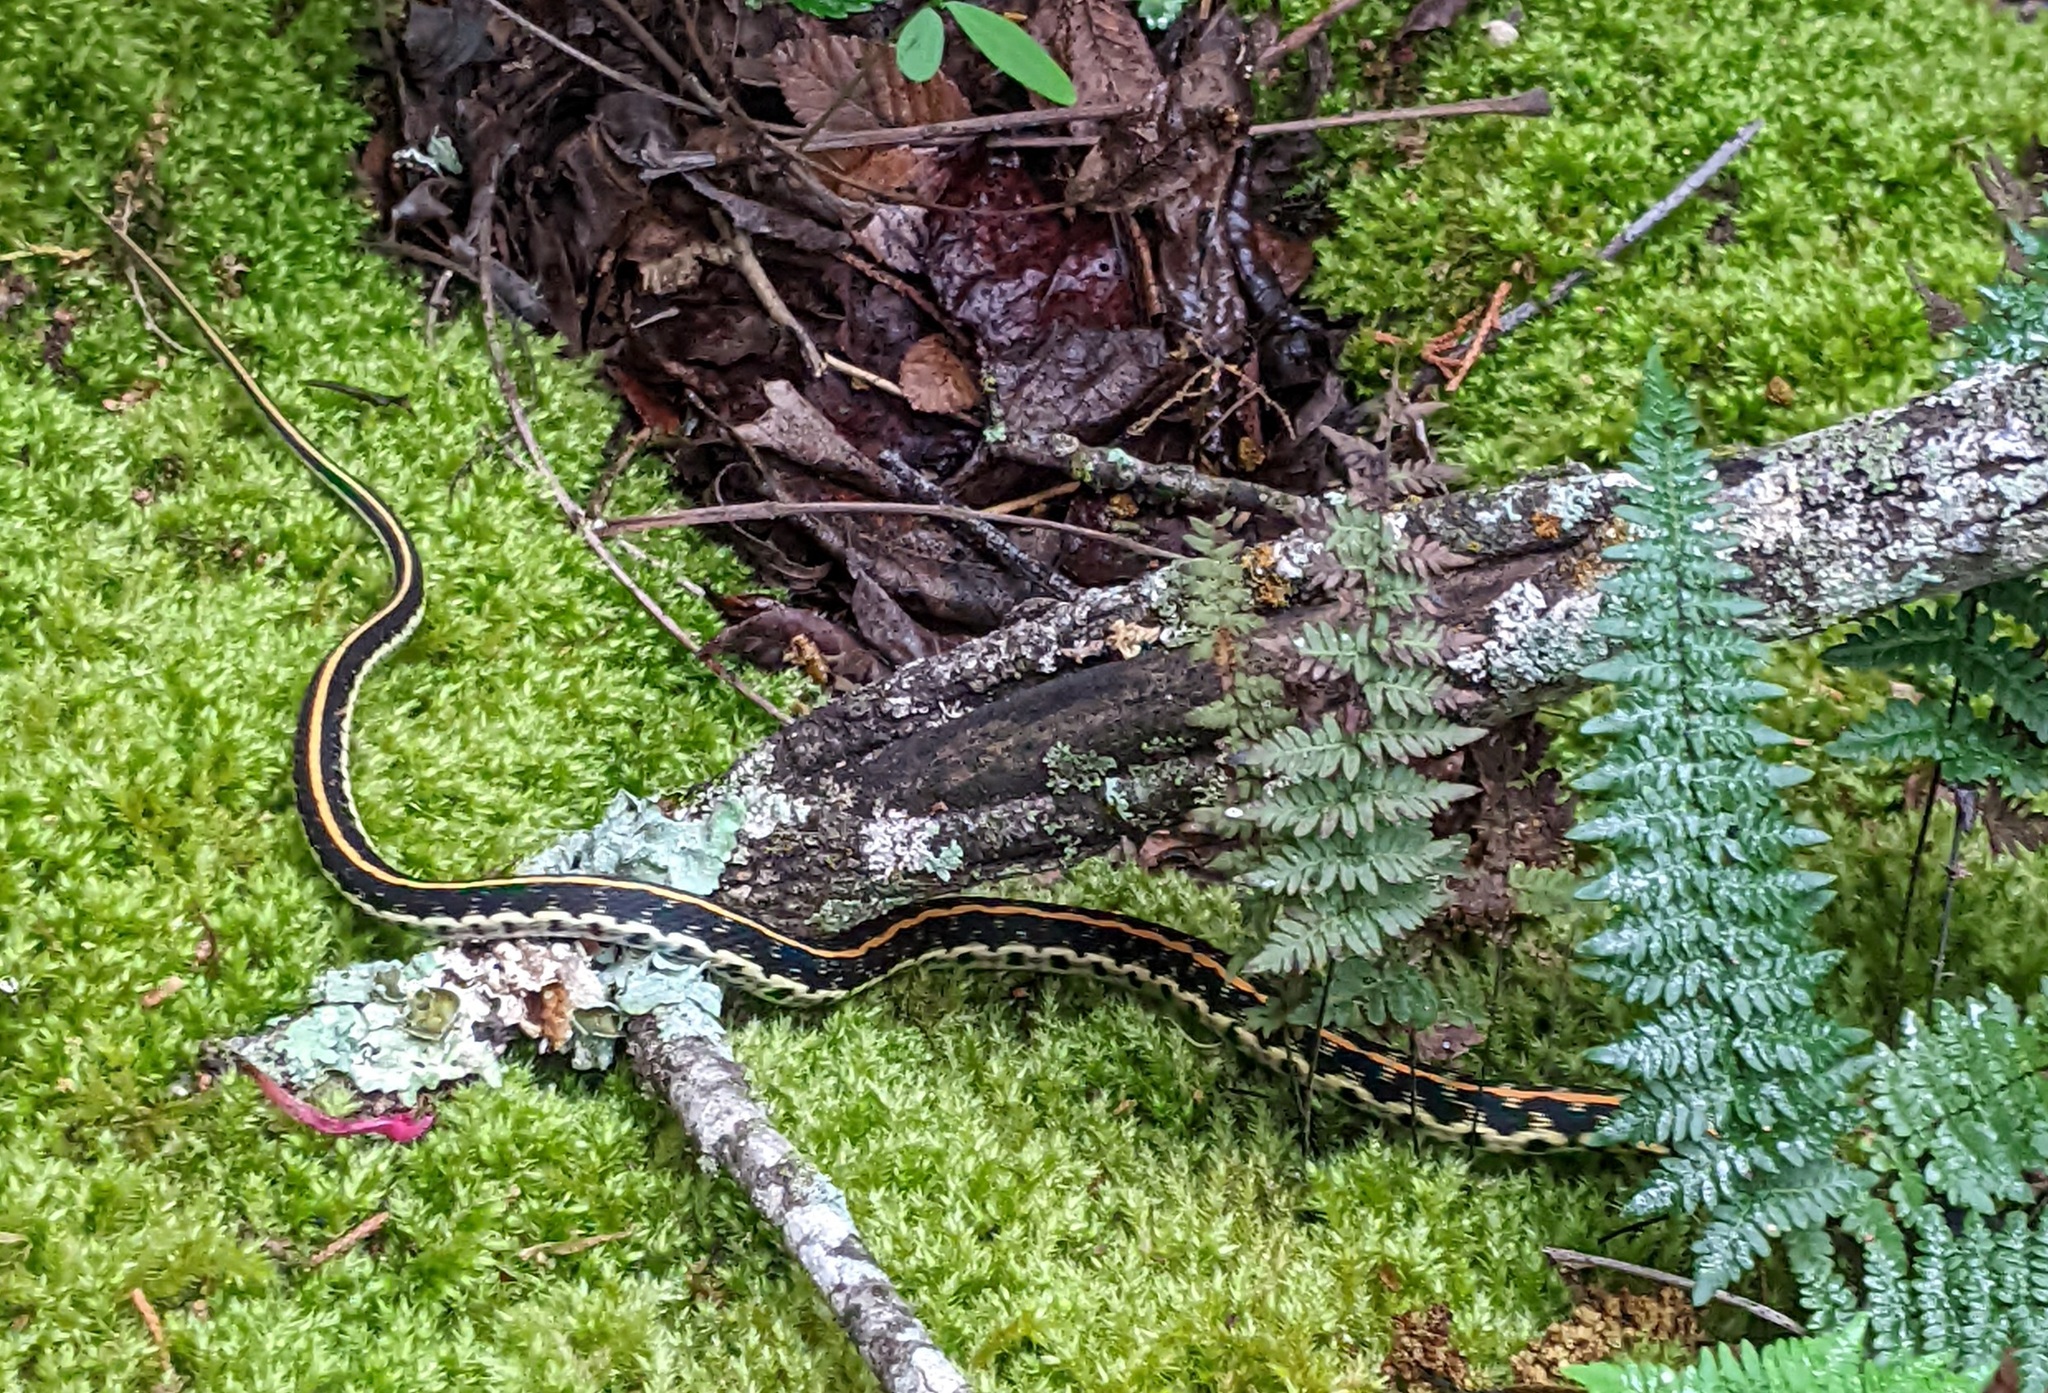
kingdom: Animalia
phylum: Chordata
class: Squamata
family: Colubridae
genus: Thamnophis
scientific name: Thamnophis cyrtopsis
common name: Black-necked gartersnake
